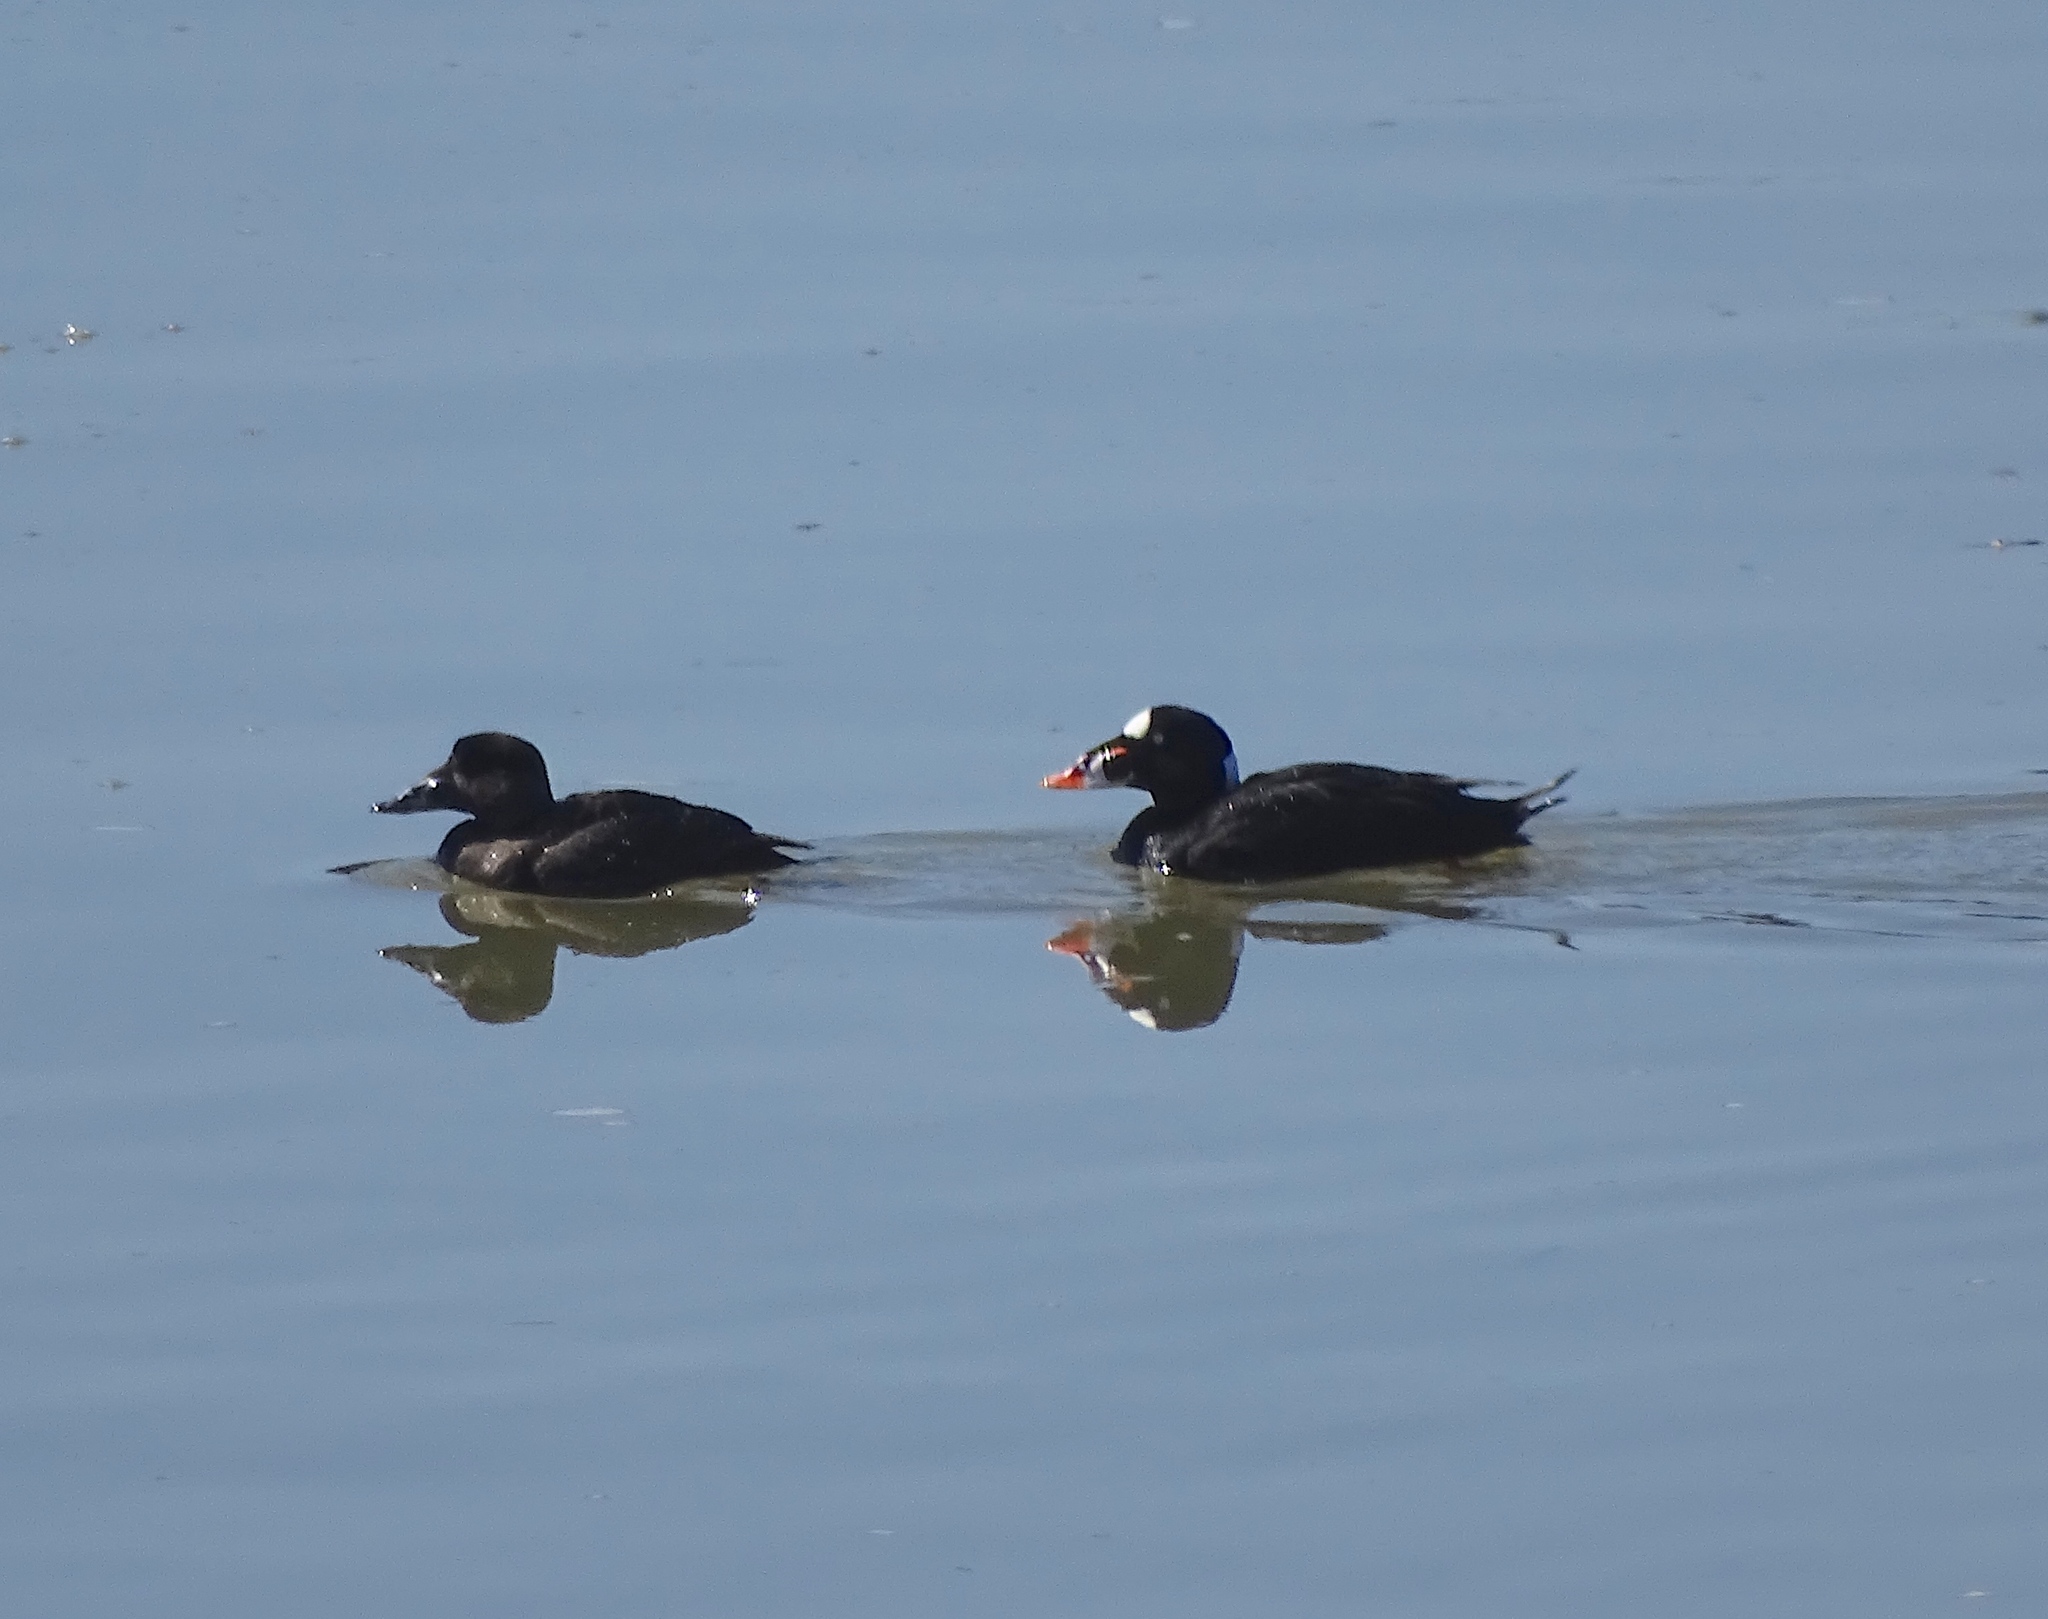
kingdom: Animalia
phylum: Chordata
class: Aves
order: Anseriformes
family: Anatidae
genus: Melanitta
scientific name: Melanitta perspicillata
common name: Surf scoter
